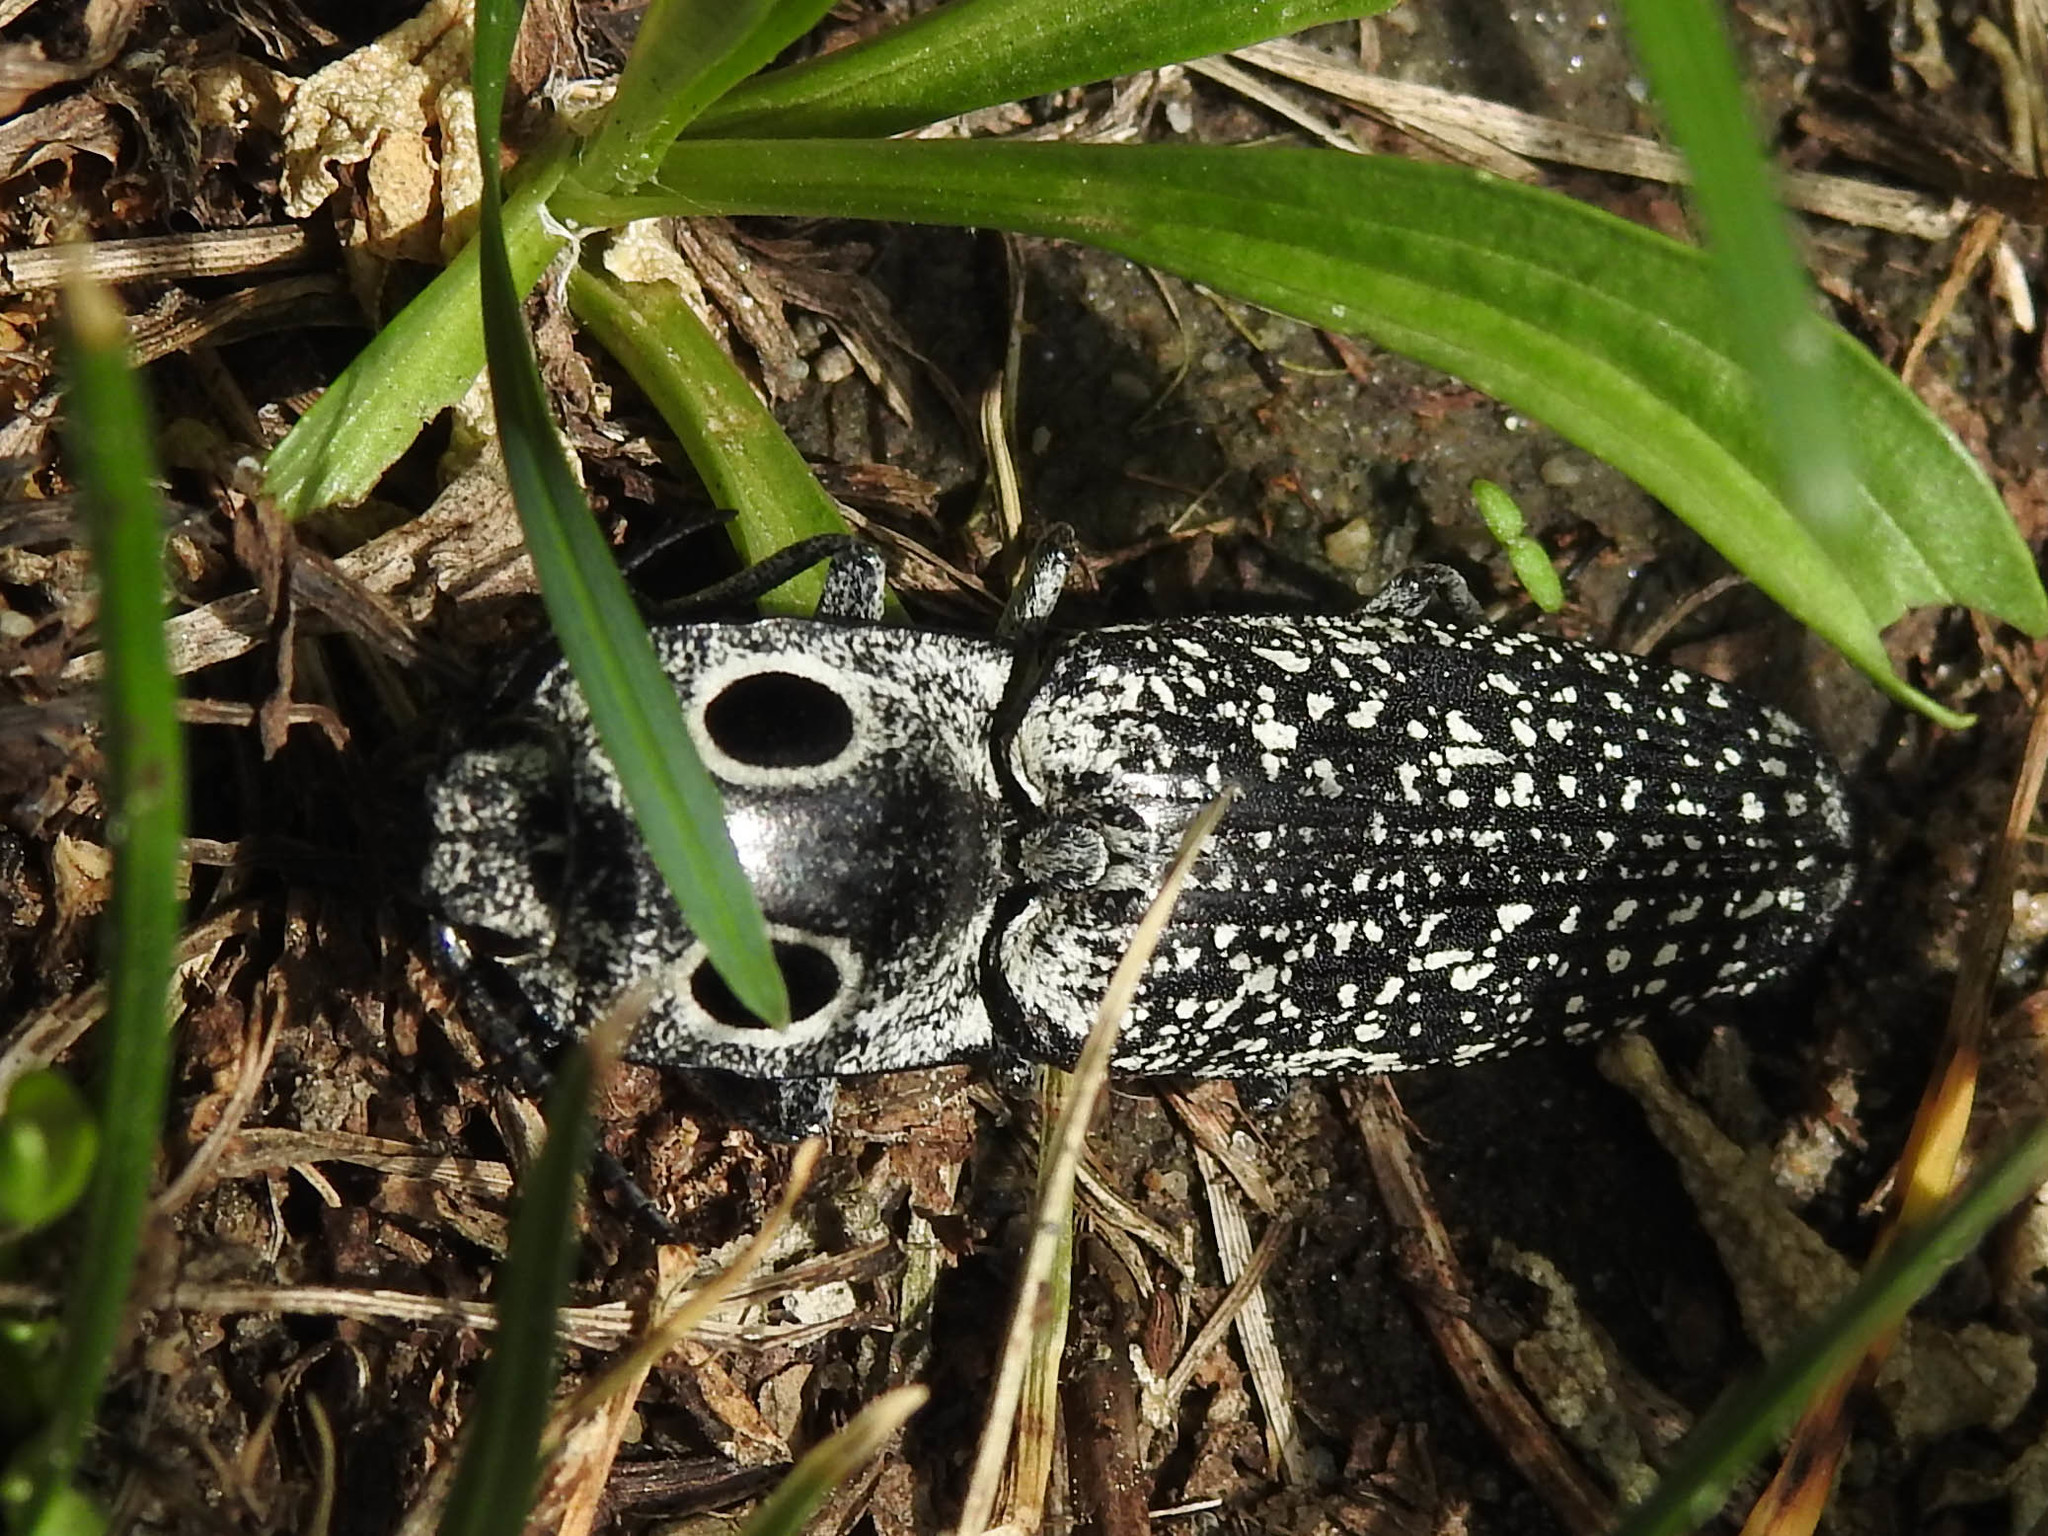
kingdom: Animalia
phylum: Arthropoda
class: Insecta
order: Coleoptera
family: Elateridae
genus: Alaus
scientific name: Alaus oculatus
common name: Eastern eyed click beetle
